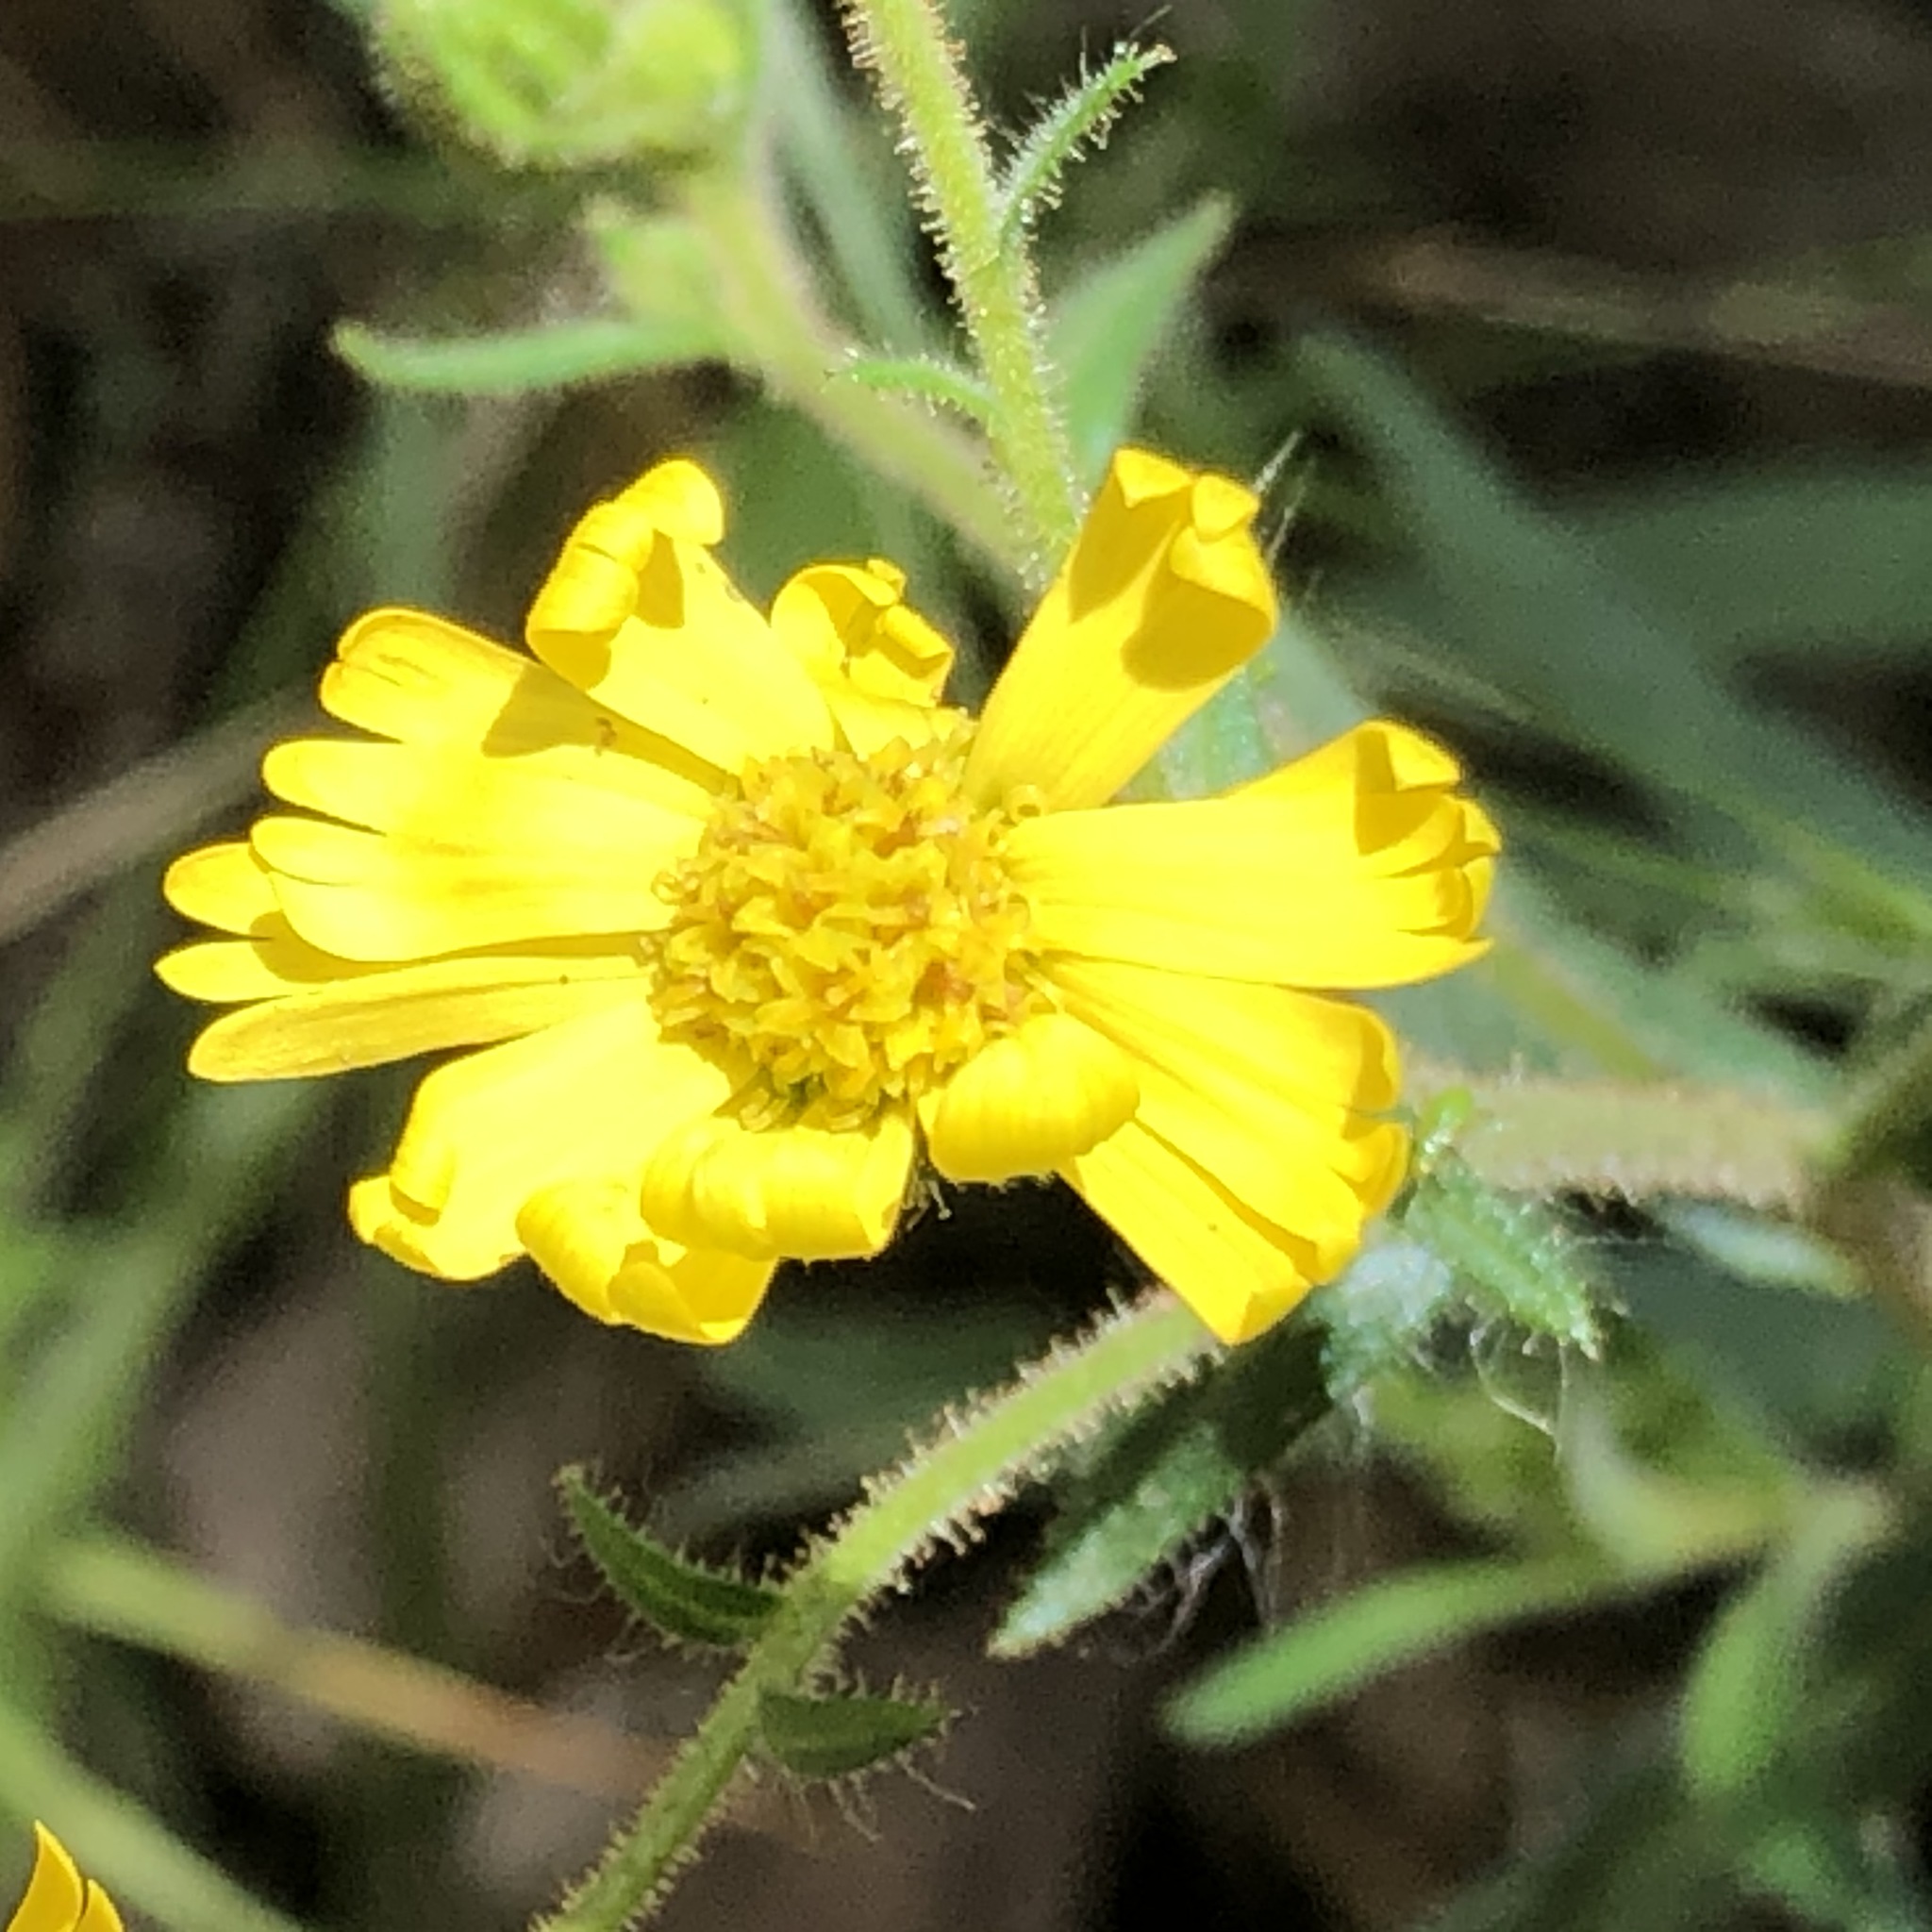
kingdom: Plantae
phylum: Tracheophyta
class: Magnoliopsida
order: Asterales
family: Asteraceae
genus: Anisocarpus
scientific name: Anisocarpus madioides
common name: Woodland madia
